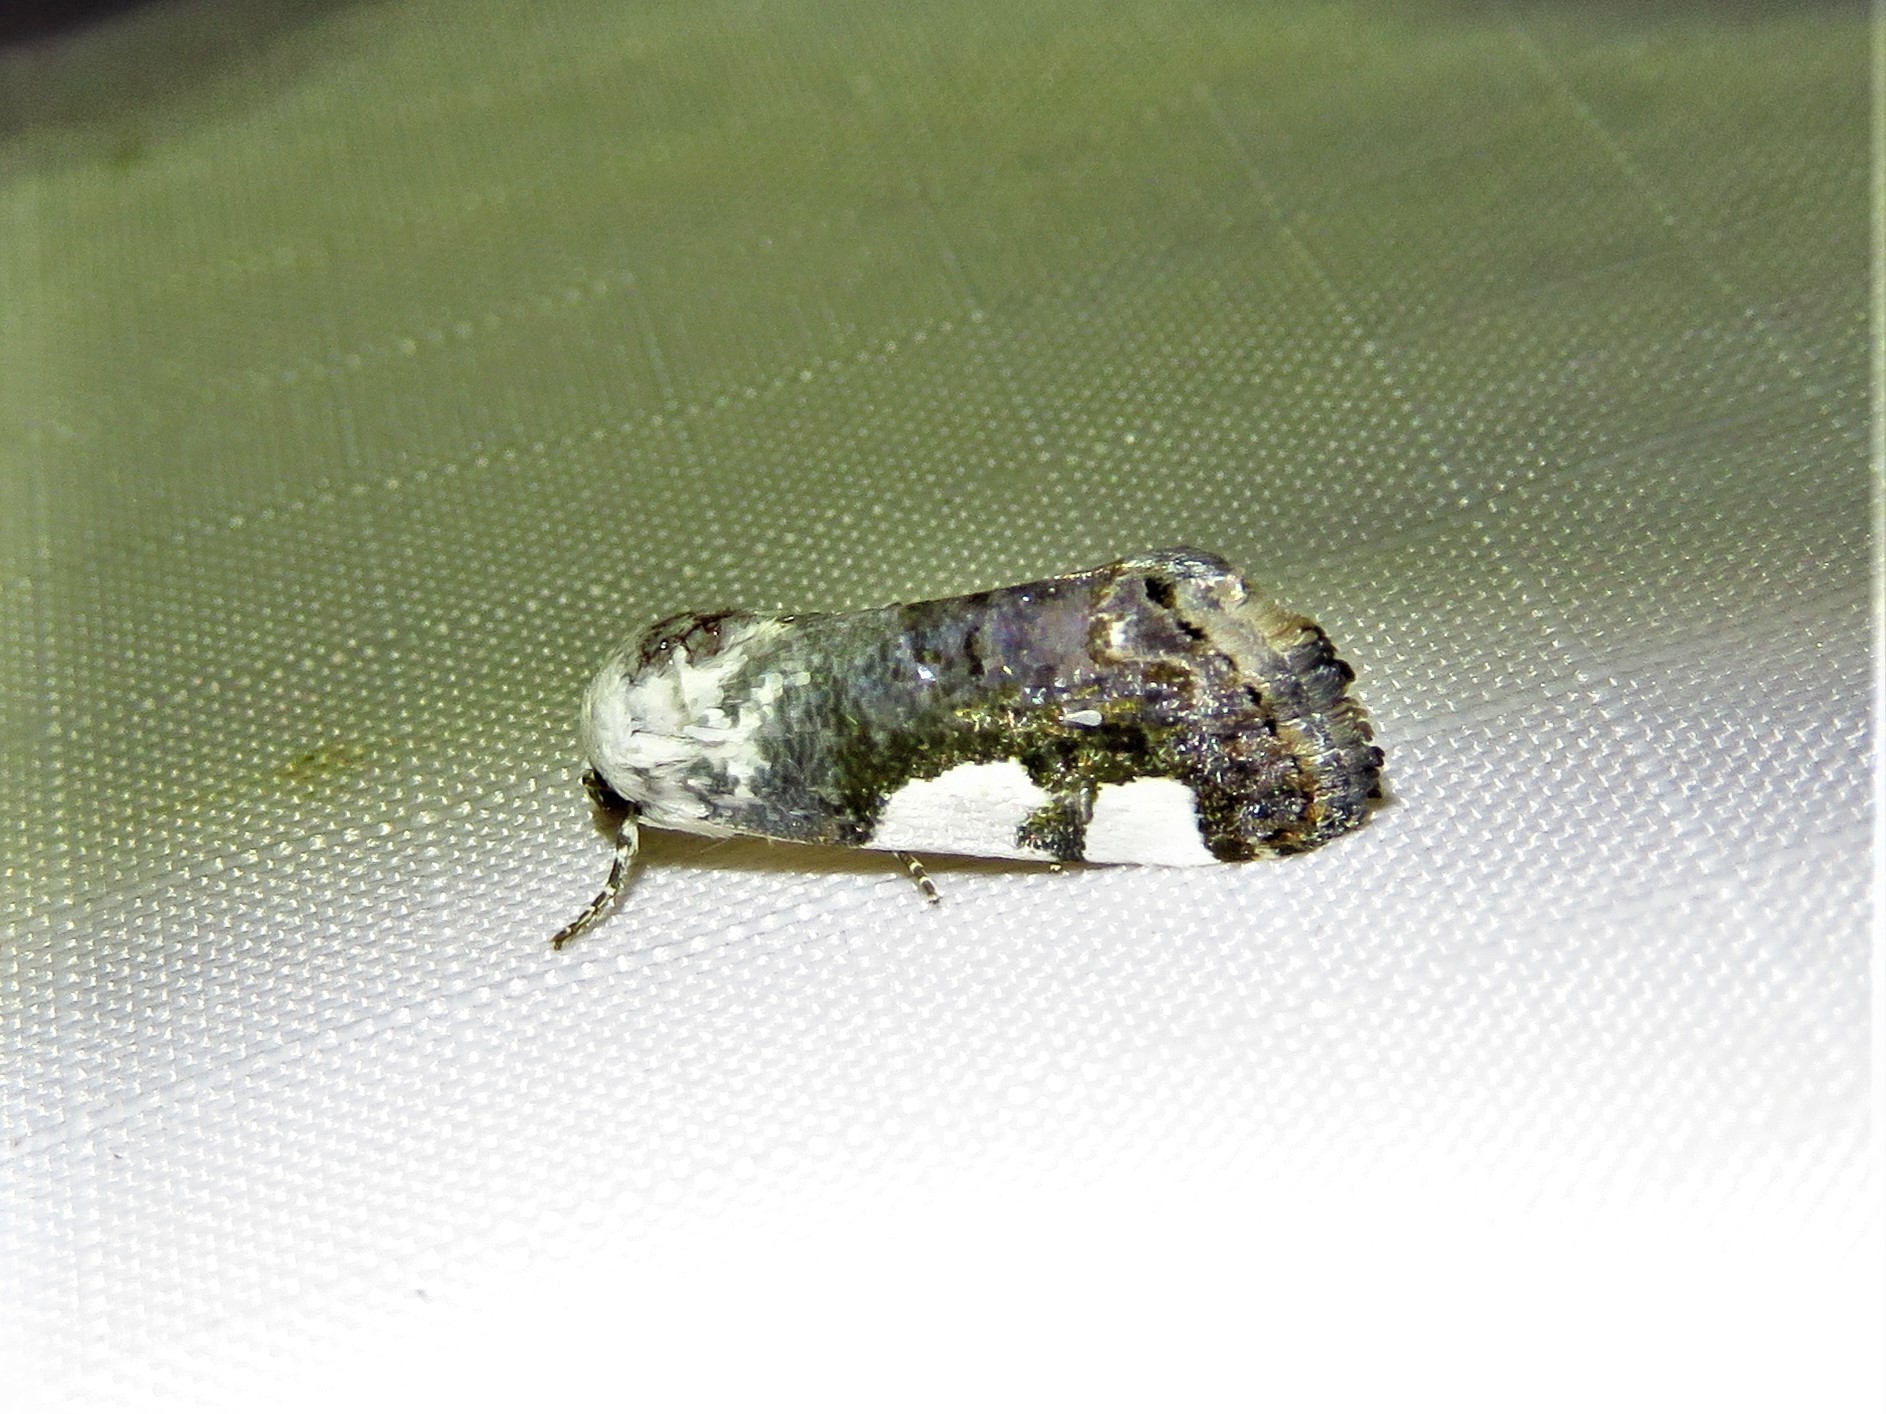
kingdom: Animalia
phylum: Arthropoda
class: Insecta
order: Lepidoptera
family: Noctuidae
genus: Acontia
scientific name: Acontia quadriplaga
